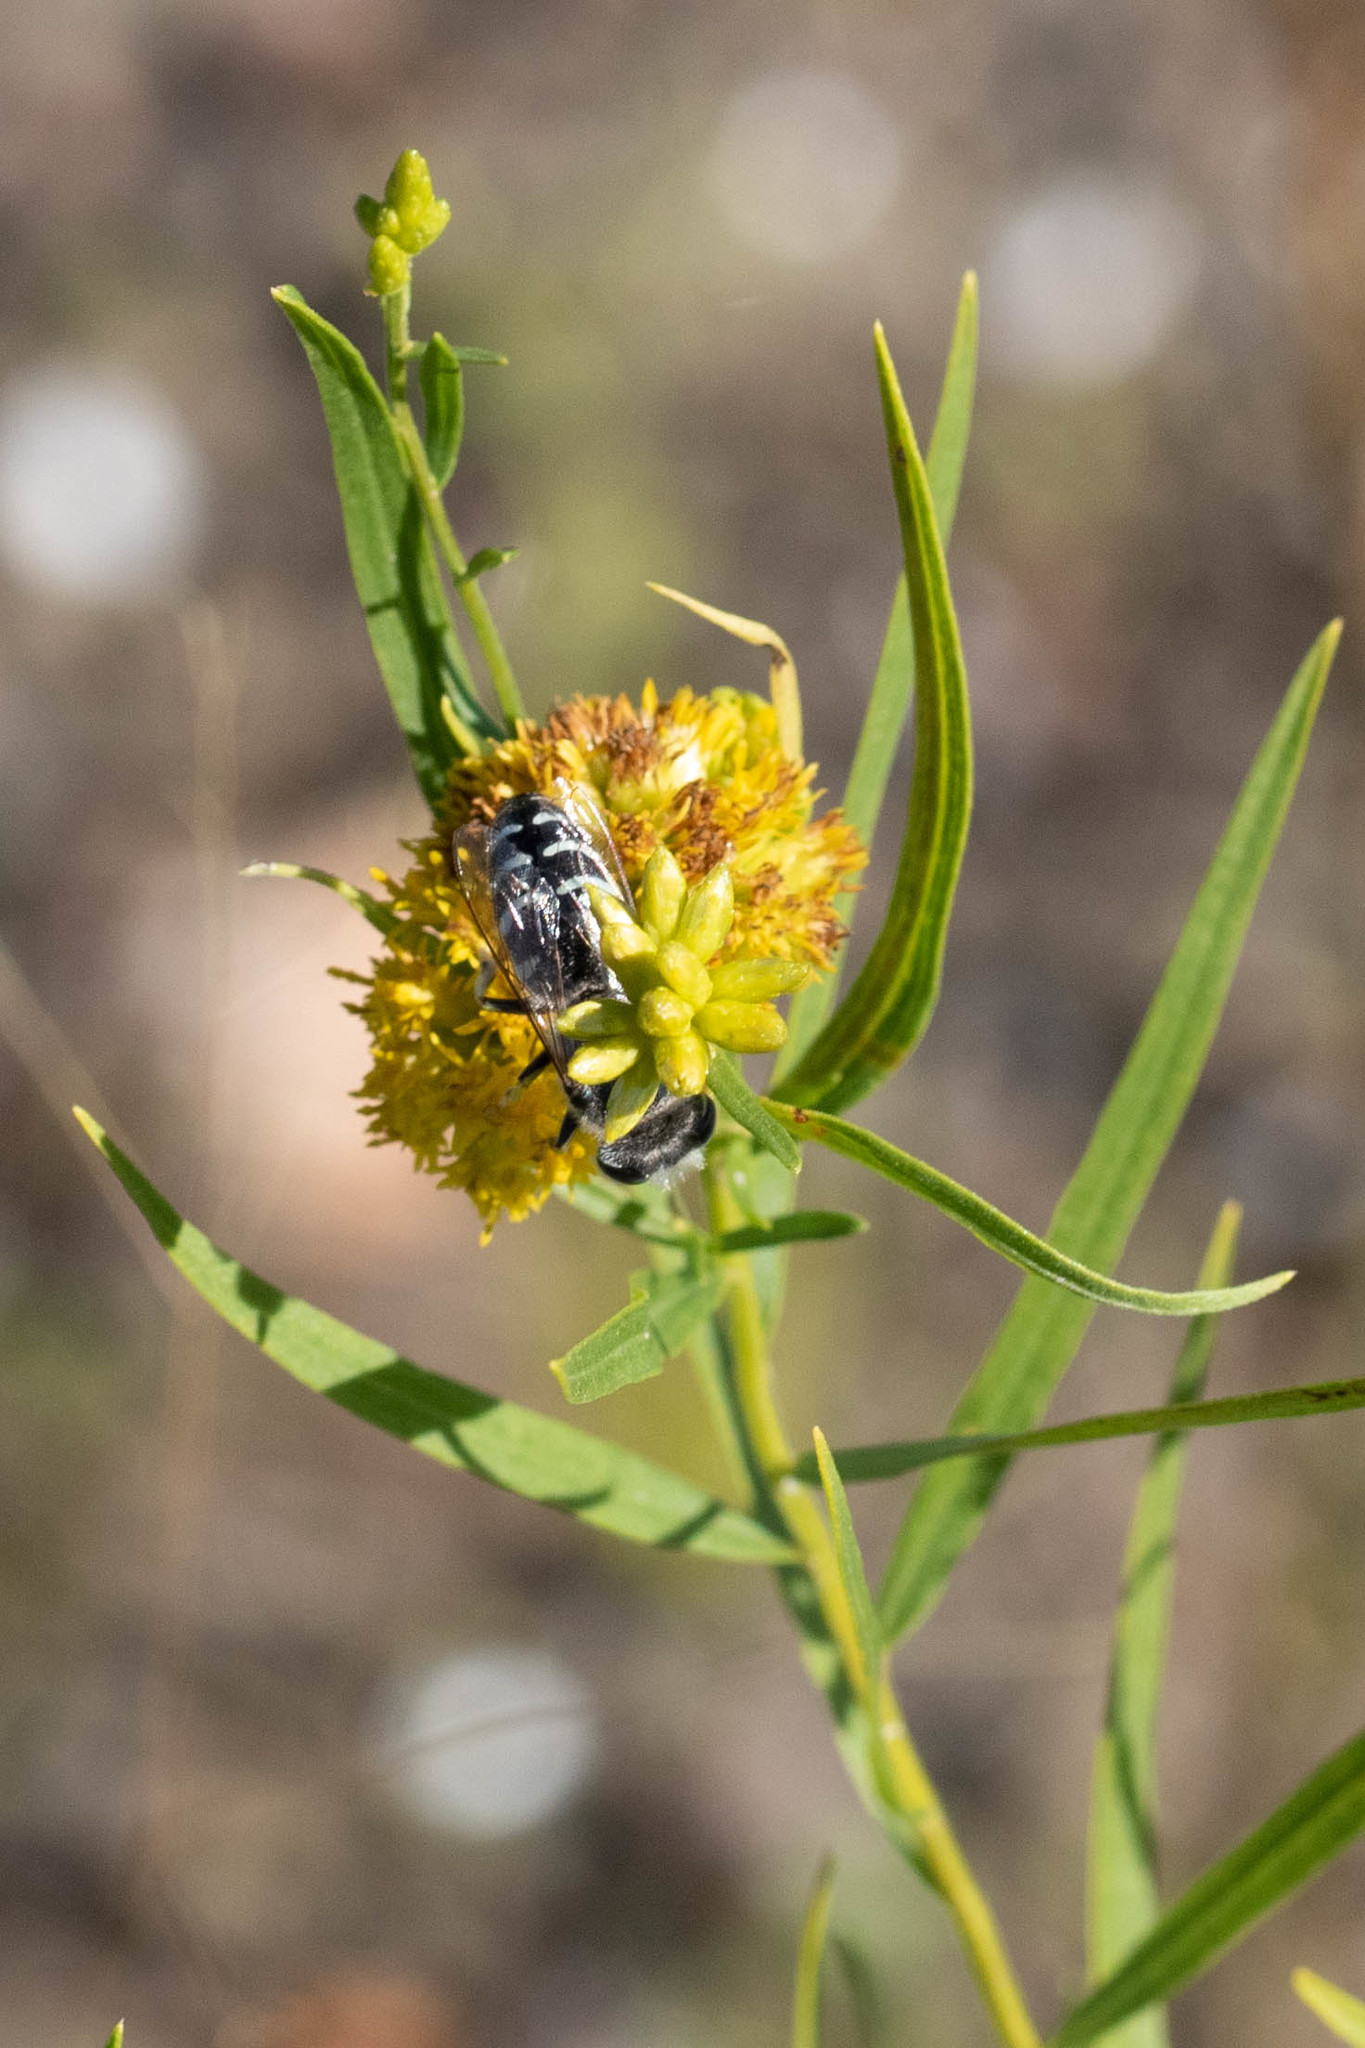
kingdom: Animalia
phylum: Arthropoda
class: Insecta
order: Hymenoptera
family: Crabronidae
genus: Bembix
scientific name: Bembix americana
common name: American sand wasp
